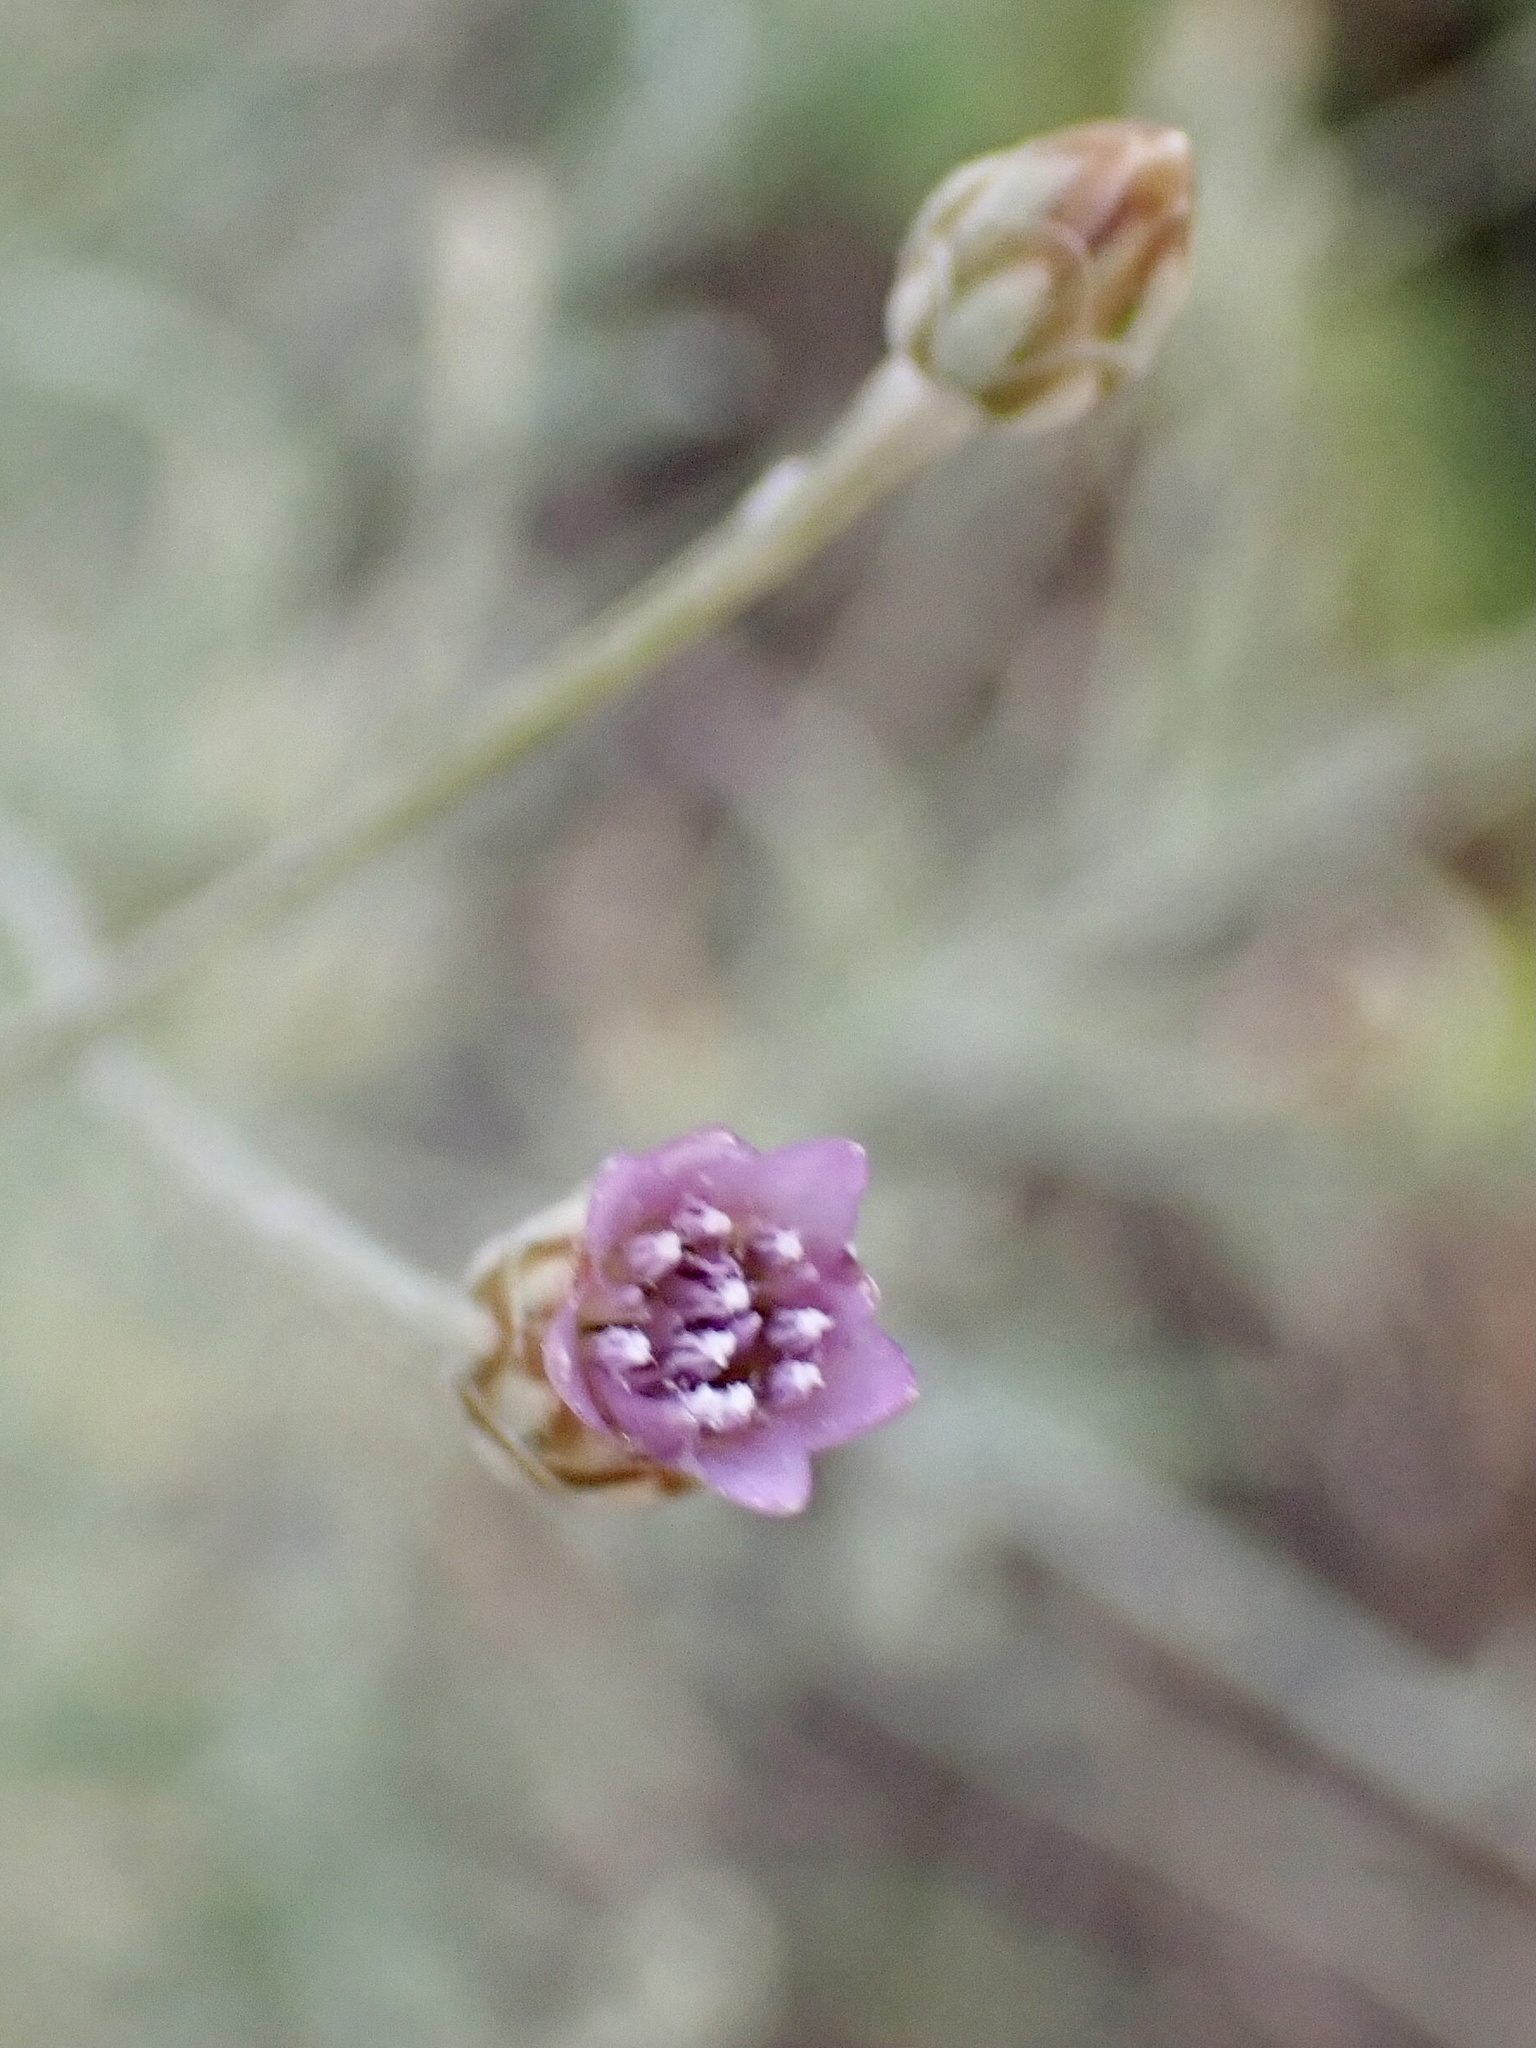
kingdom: Plantae
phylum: Tracheophyta
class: Magnoliopsida
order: Asterales
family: Asteraceae
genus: Xeranthemum
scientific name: Xeranthemum cylindraceum
